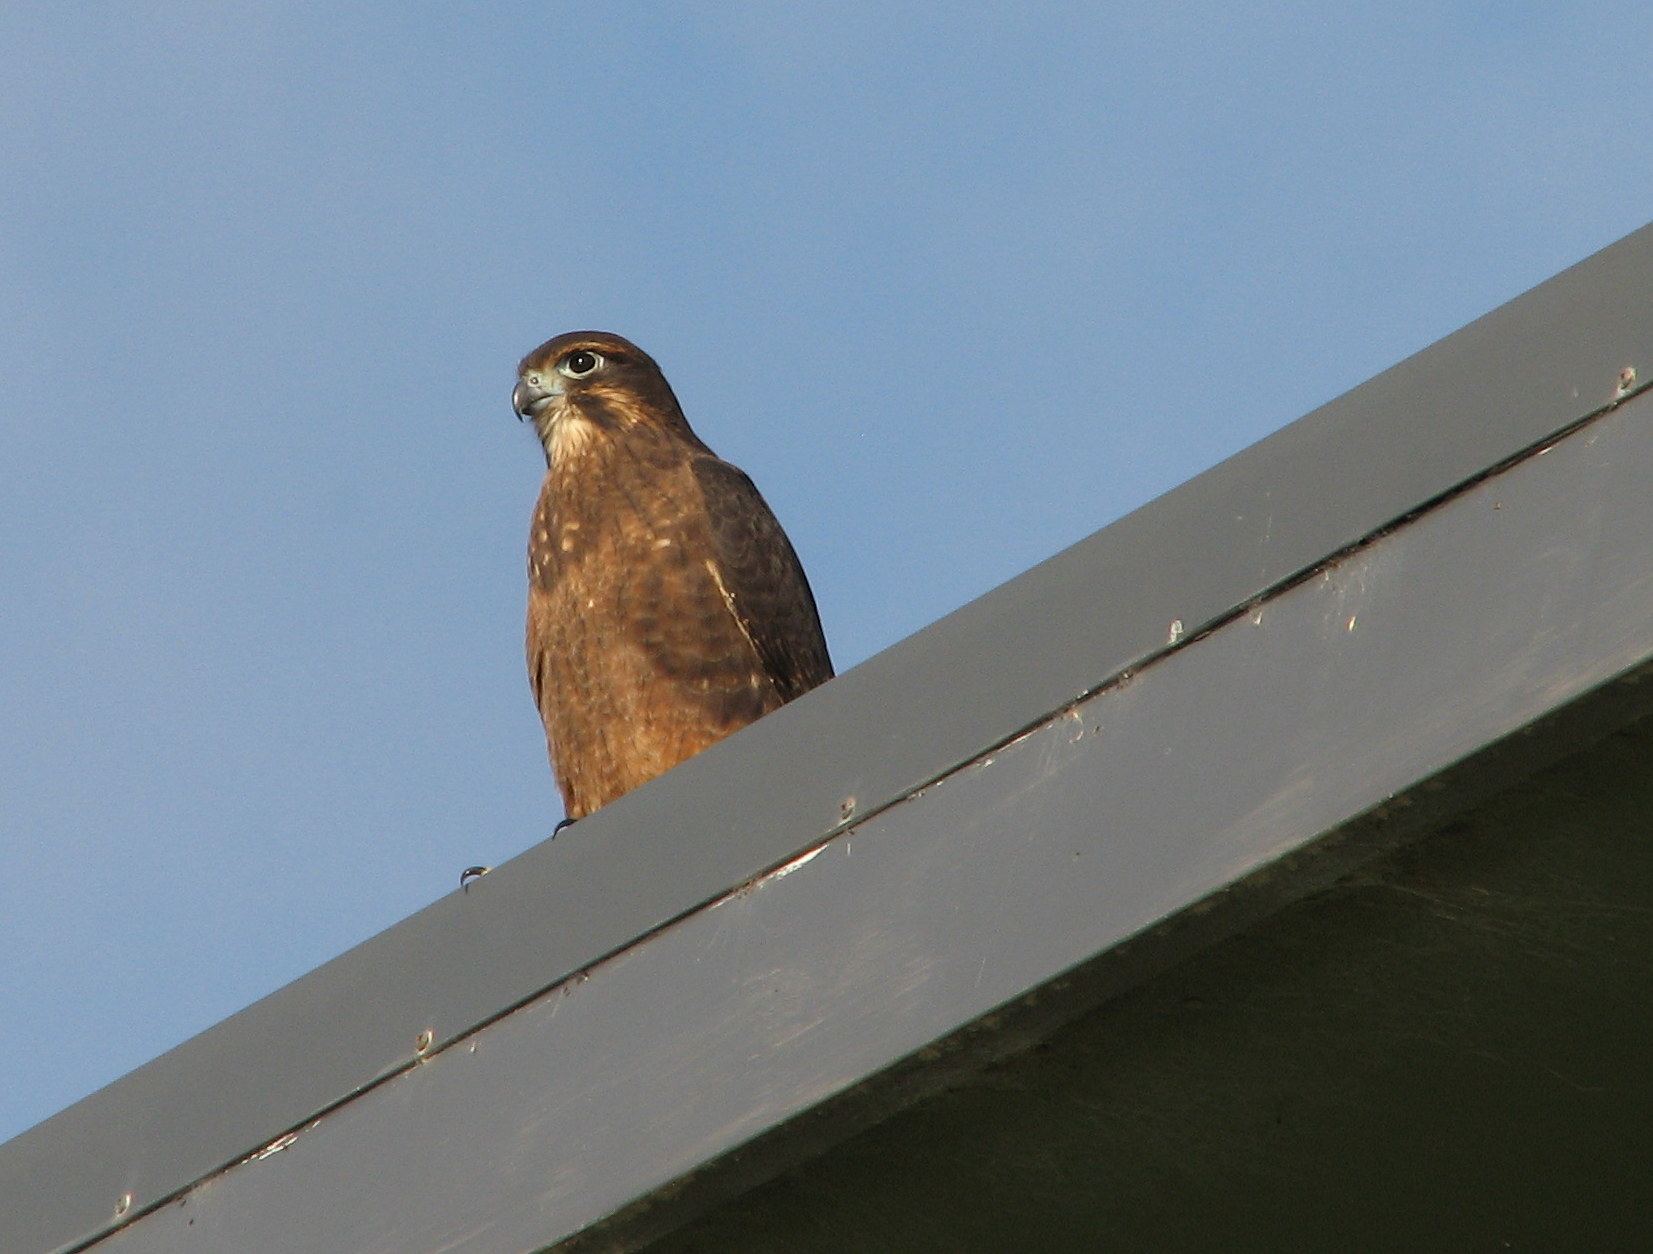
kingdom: Animalia
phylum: Chordata
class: Aves
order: Falconiformes
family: Falconidae
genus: Falco
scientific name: Falco novaeseelandiae
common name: New zealand falcon
